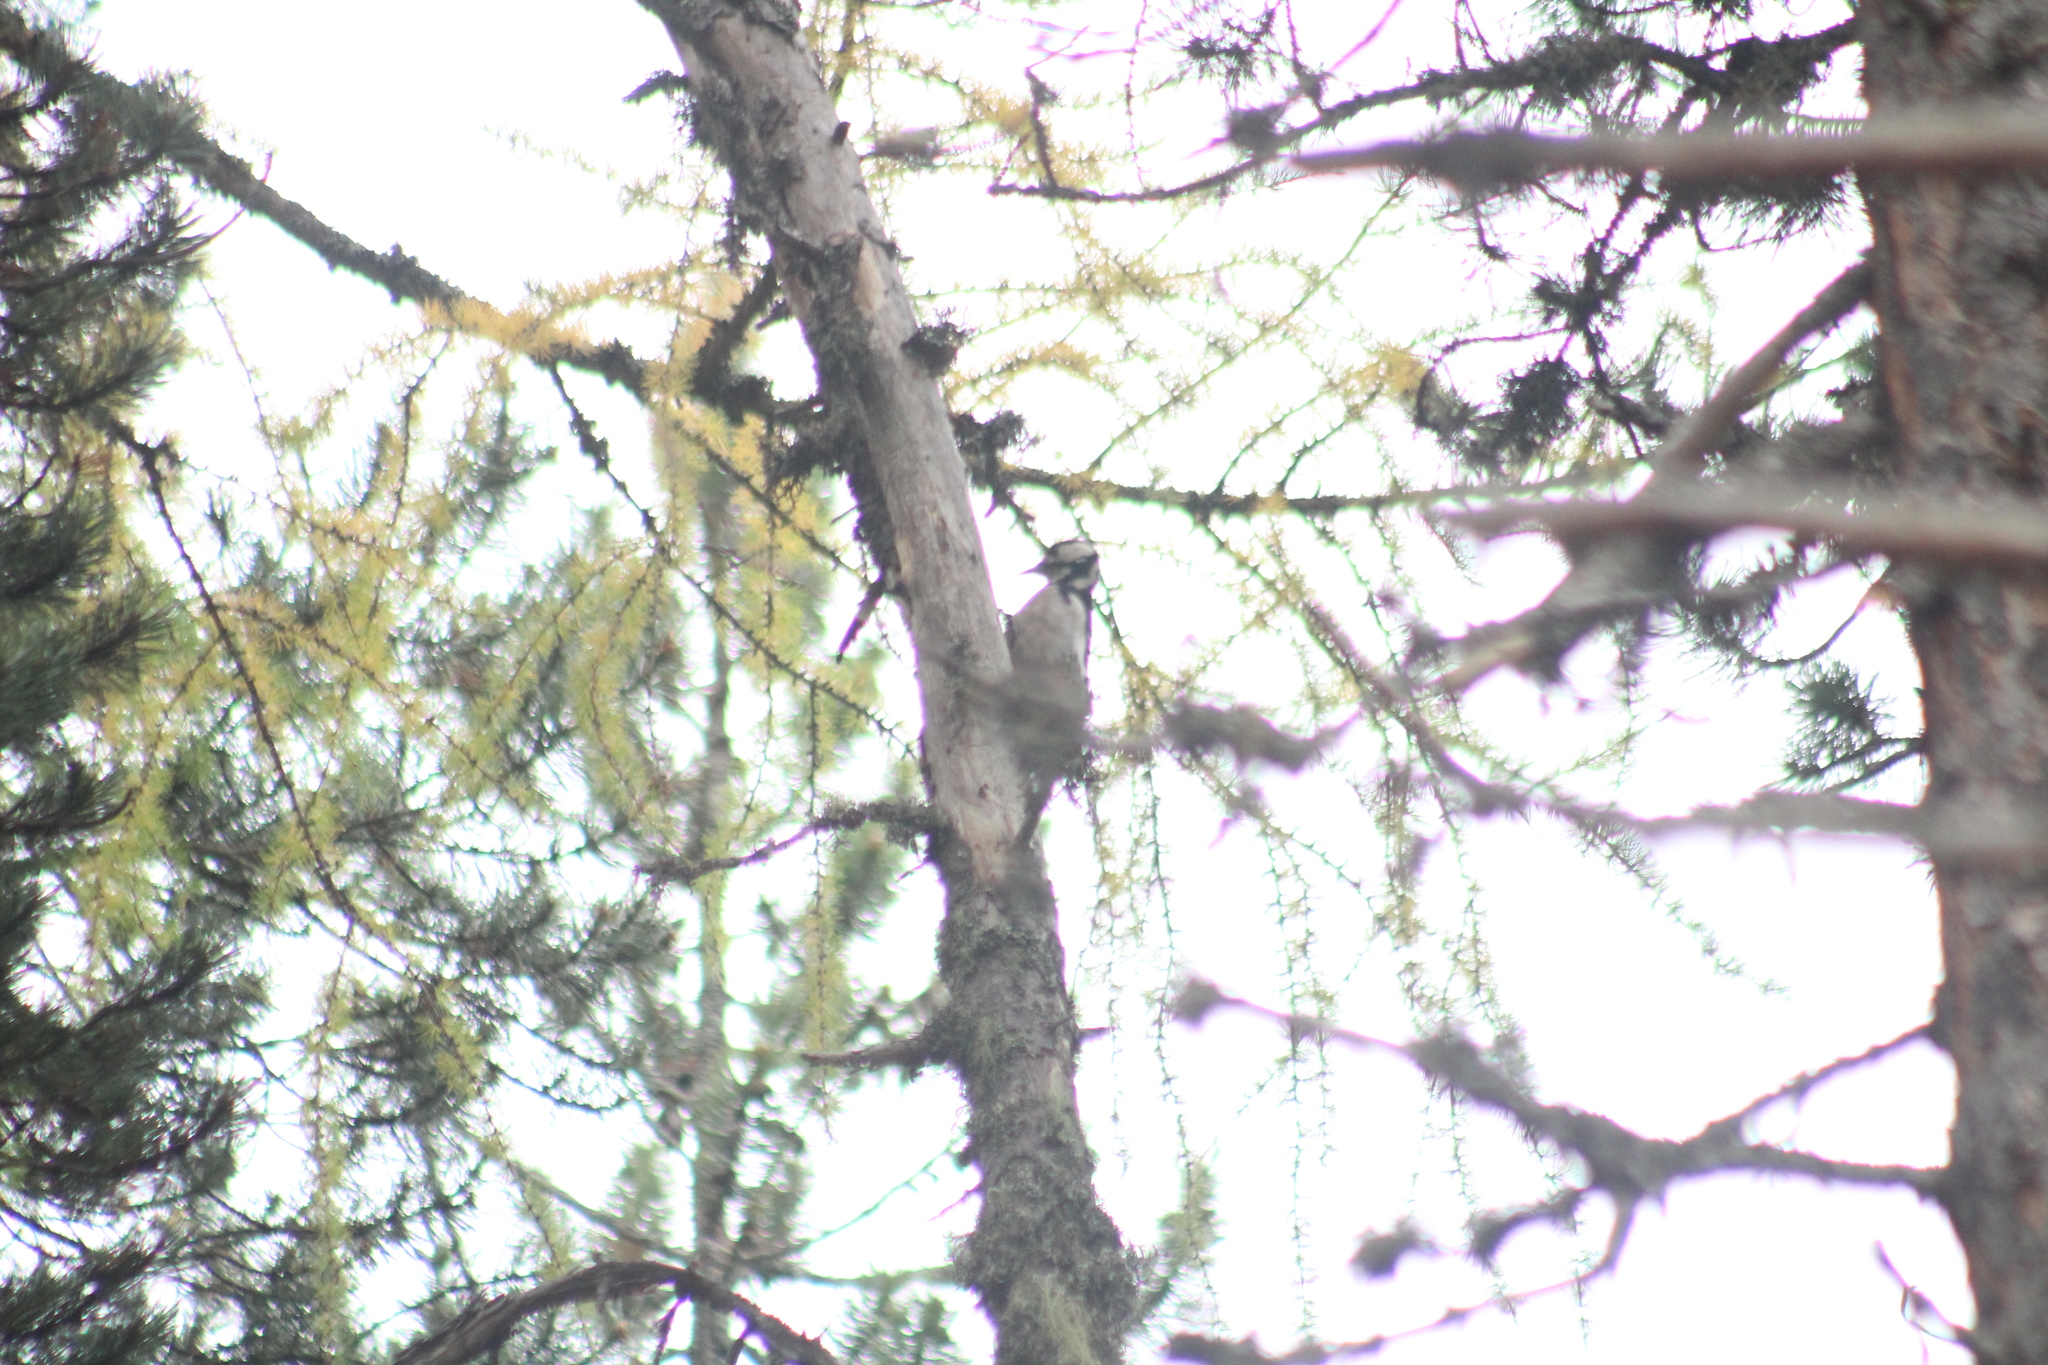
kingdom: Animalia
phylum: Chordata
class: Aves
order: Piciformes
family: Picidae
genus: Dendrocopos
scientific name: Dendrocopos major
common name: Great spotted woodpecker
